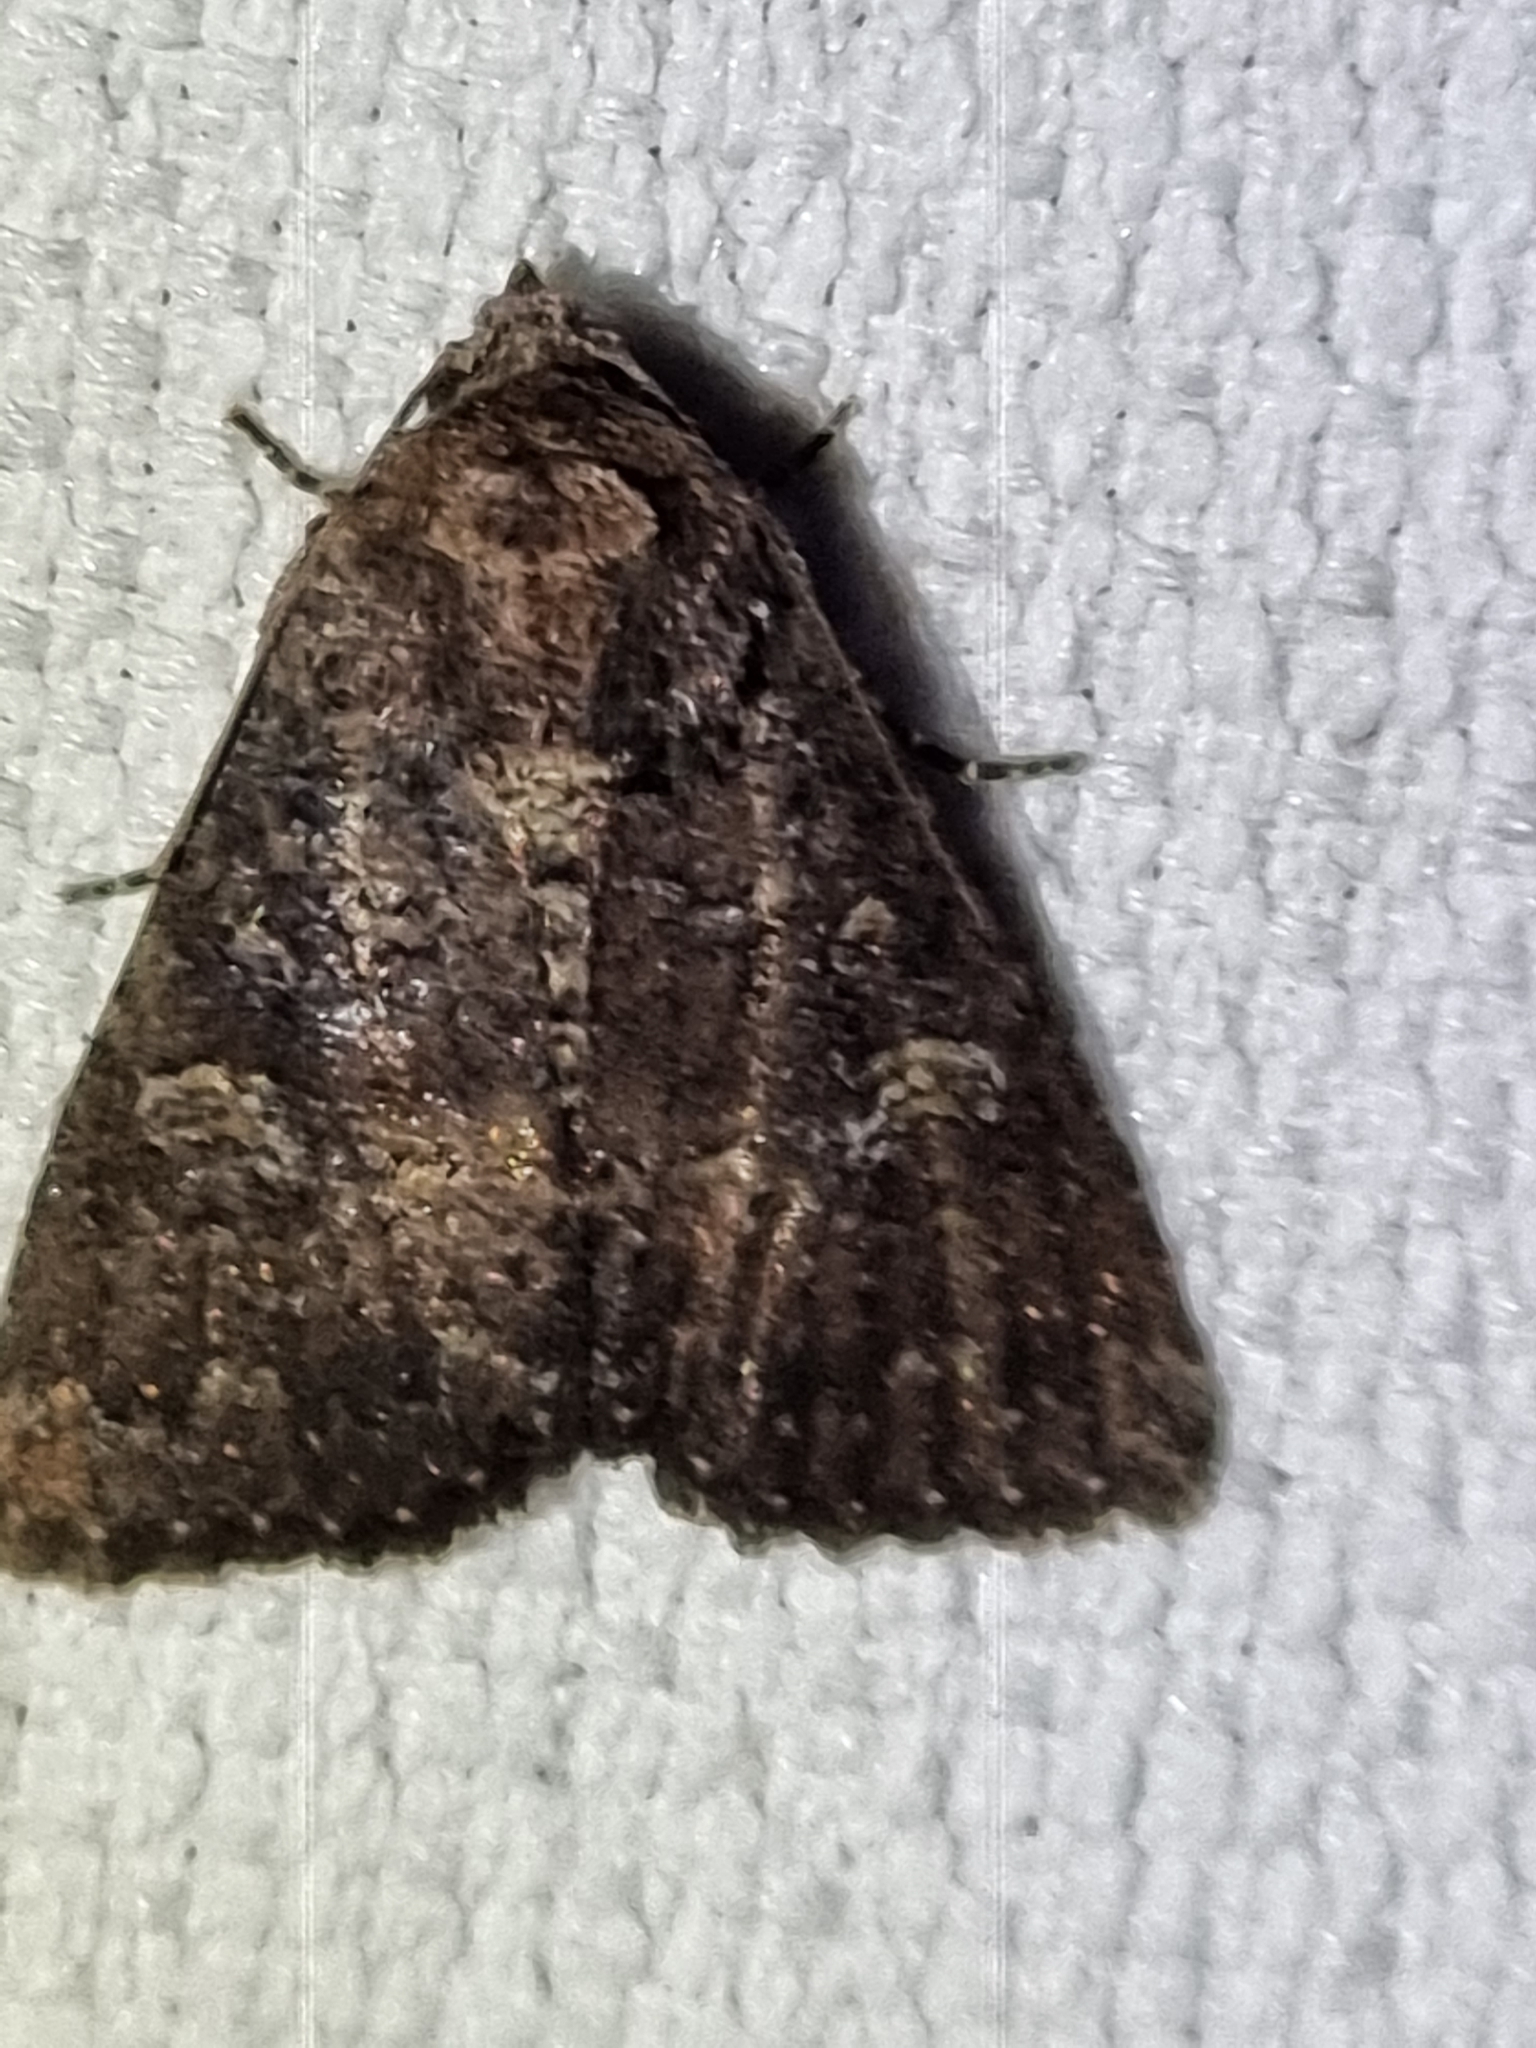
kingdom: Animalia
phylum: Arthropoda
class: Insecta
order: Lepidoptera
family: Noctuidae
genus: Condica
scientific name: Condica illecta
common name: Cutworm
